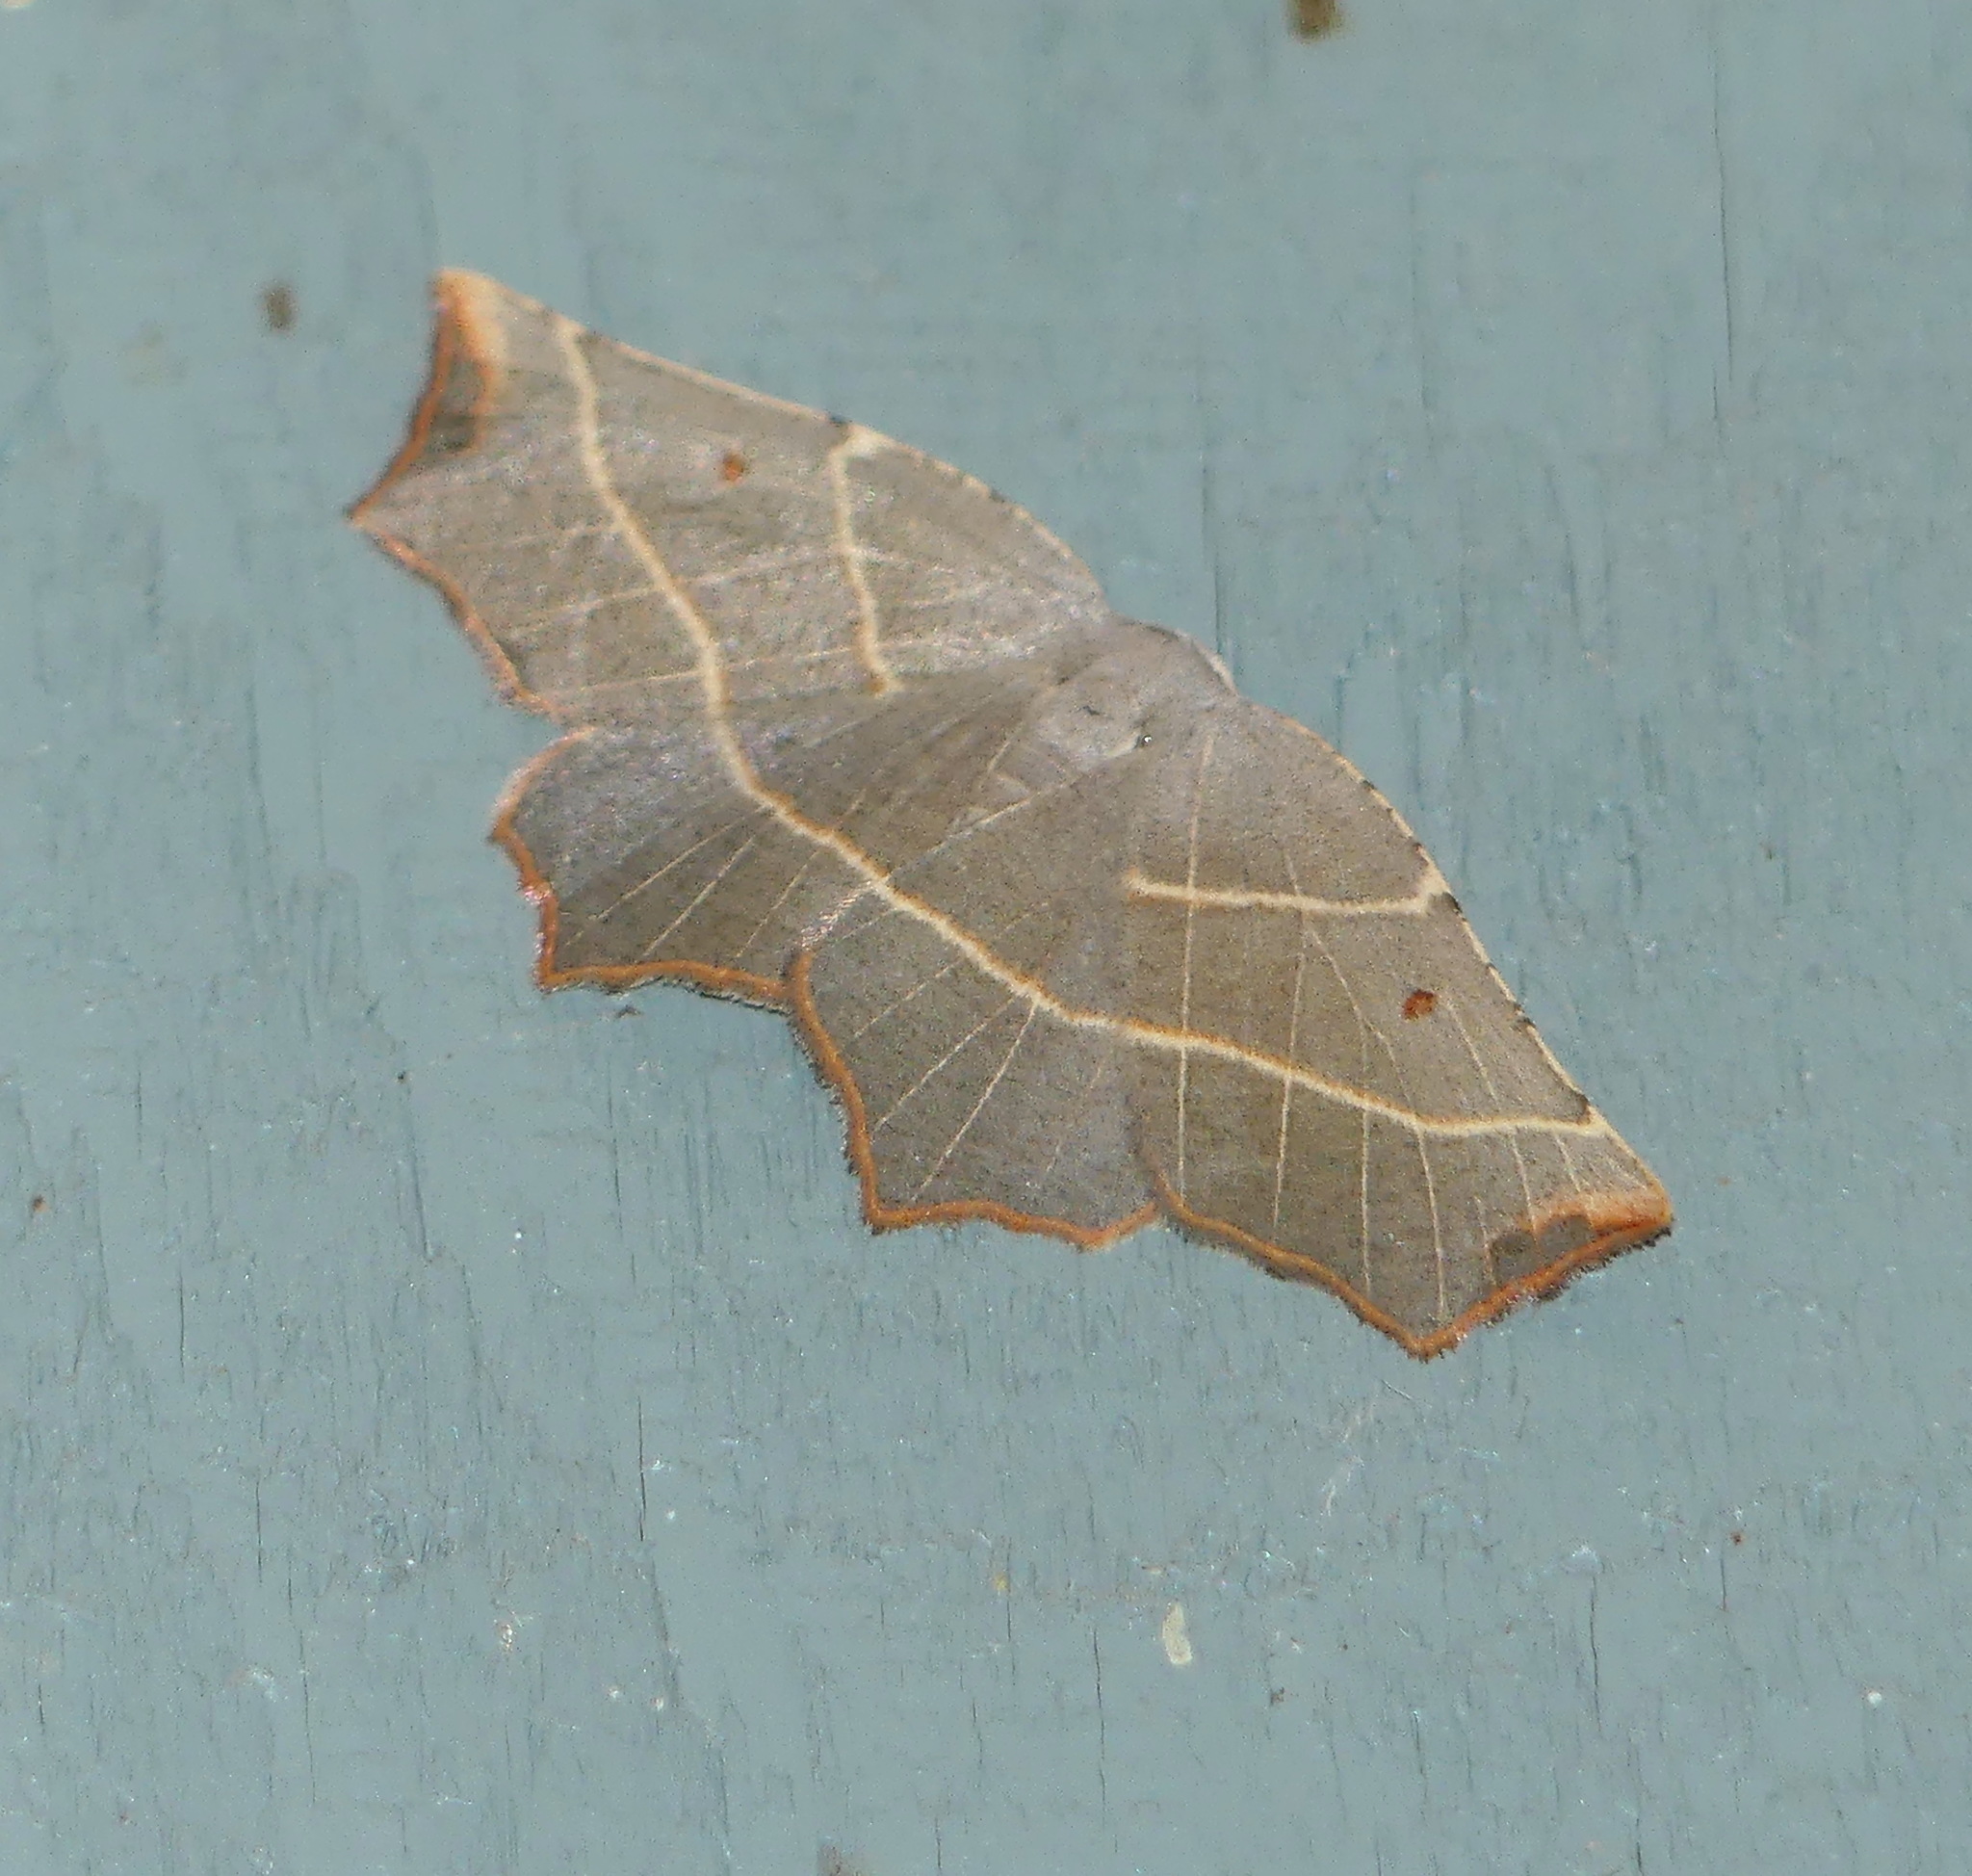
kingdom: Animalia
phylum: Arthropoda
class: Insecta
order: Lepidoptera
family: Geometridae
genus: Metanema
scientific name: Metanema inatomaria
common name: Pale metanema
